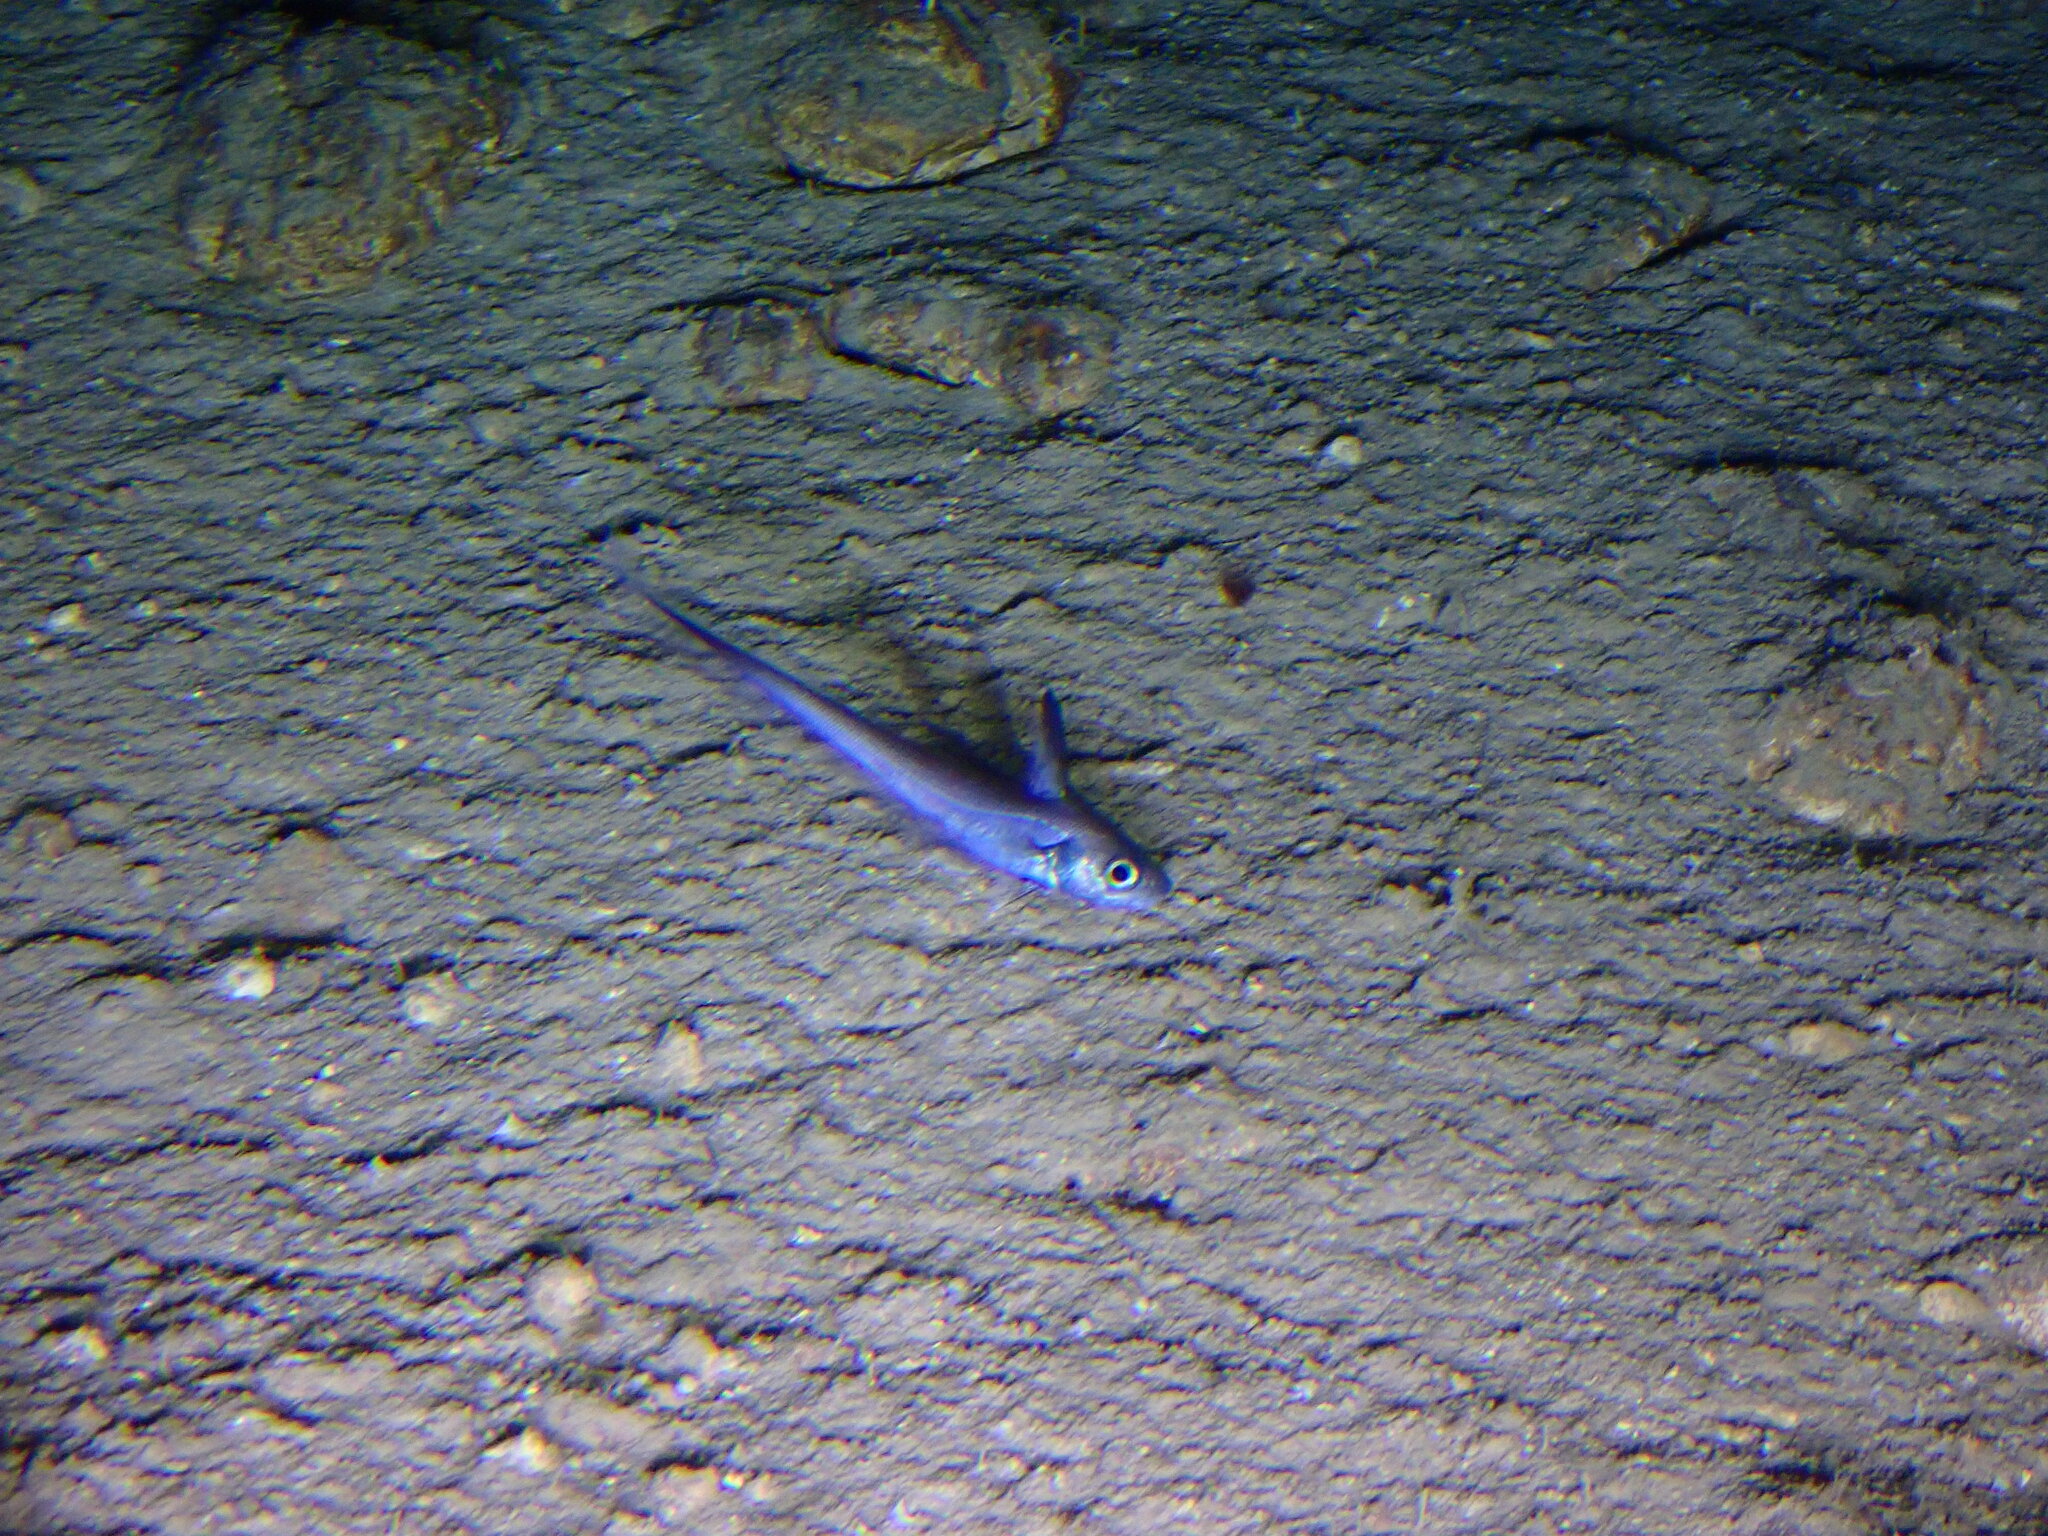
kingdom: Animalia
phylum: Chordata
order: Gadiformes
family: Macrouridae
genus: Nezumia
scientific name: Nezumia aequalis
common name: Common atlantic grenadier
